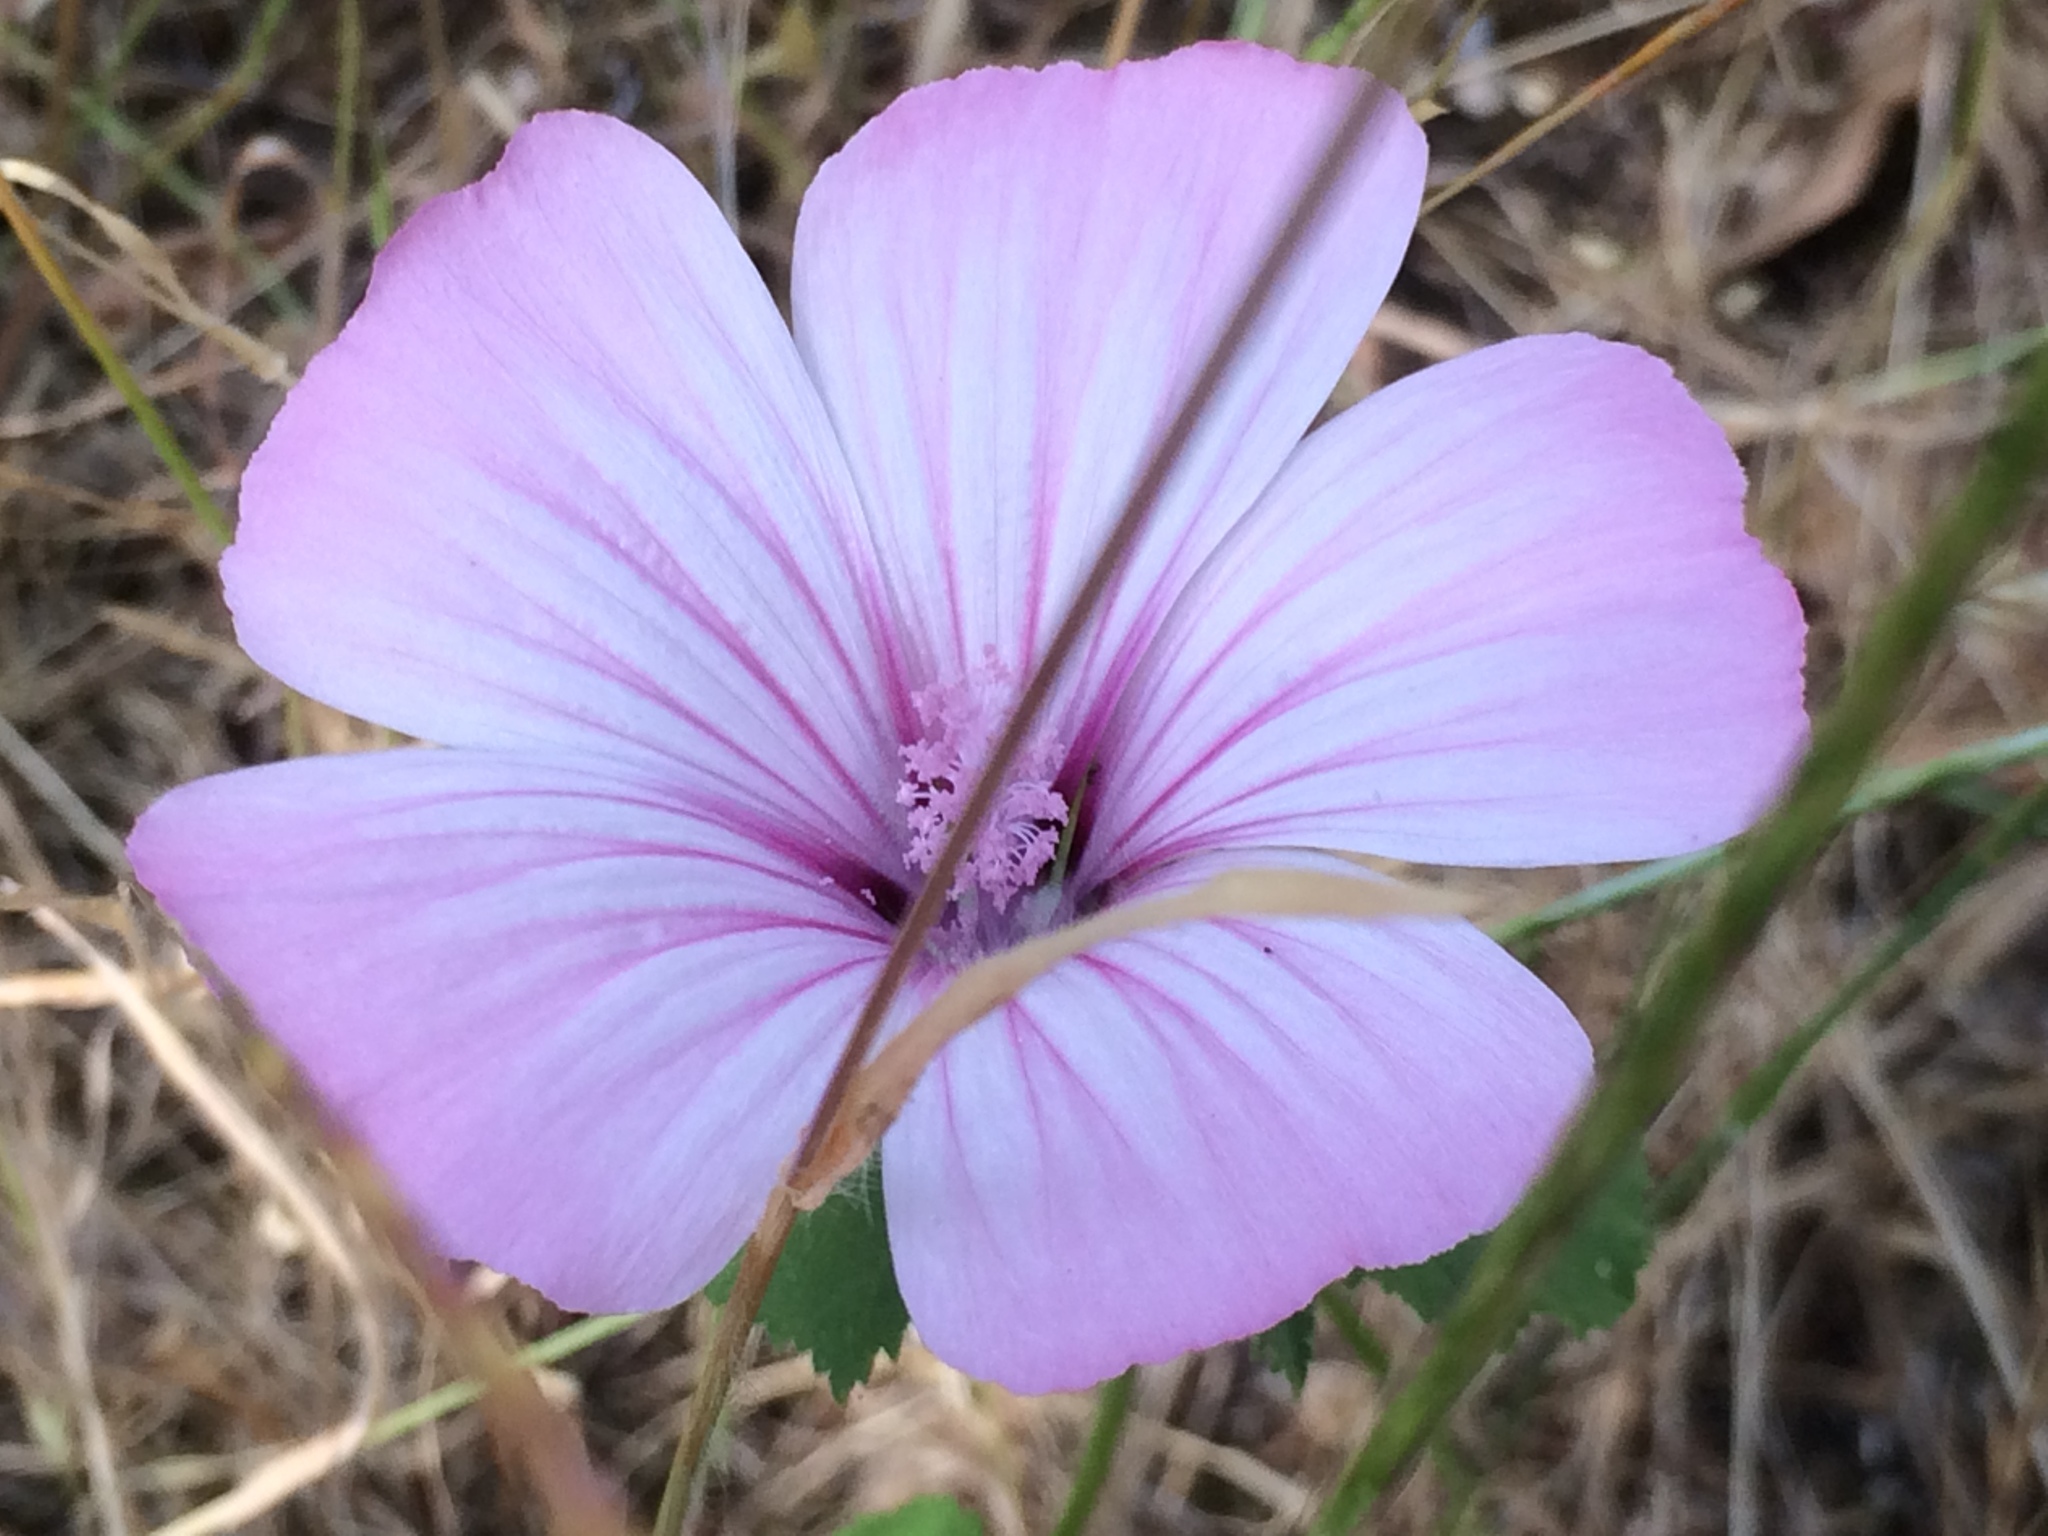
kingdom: Plantae
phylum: Tracheophyta
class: Magnoliopsida
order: Malvales
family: Malvaceae
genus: Malva
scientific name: Malva trimestris
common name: Royal mallow
